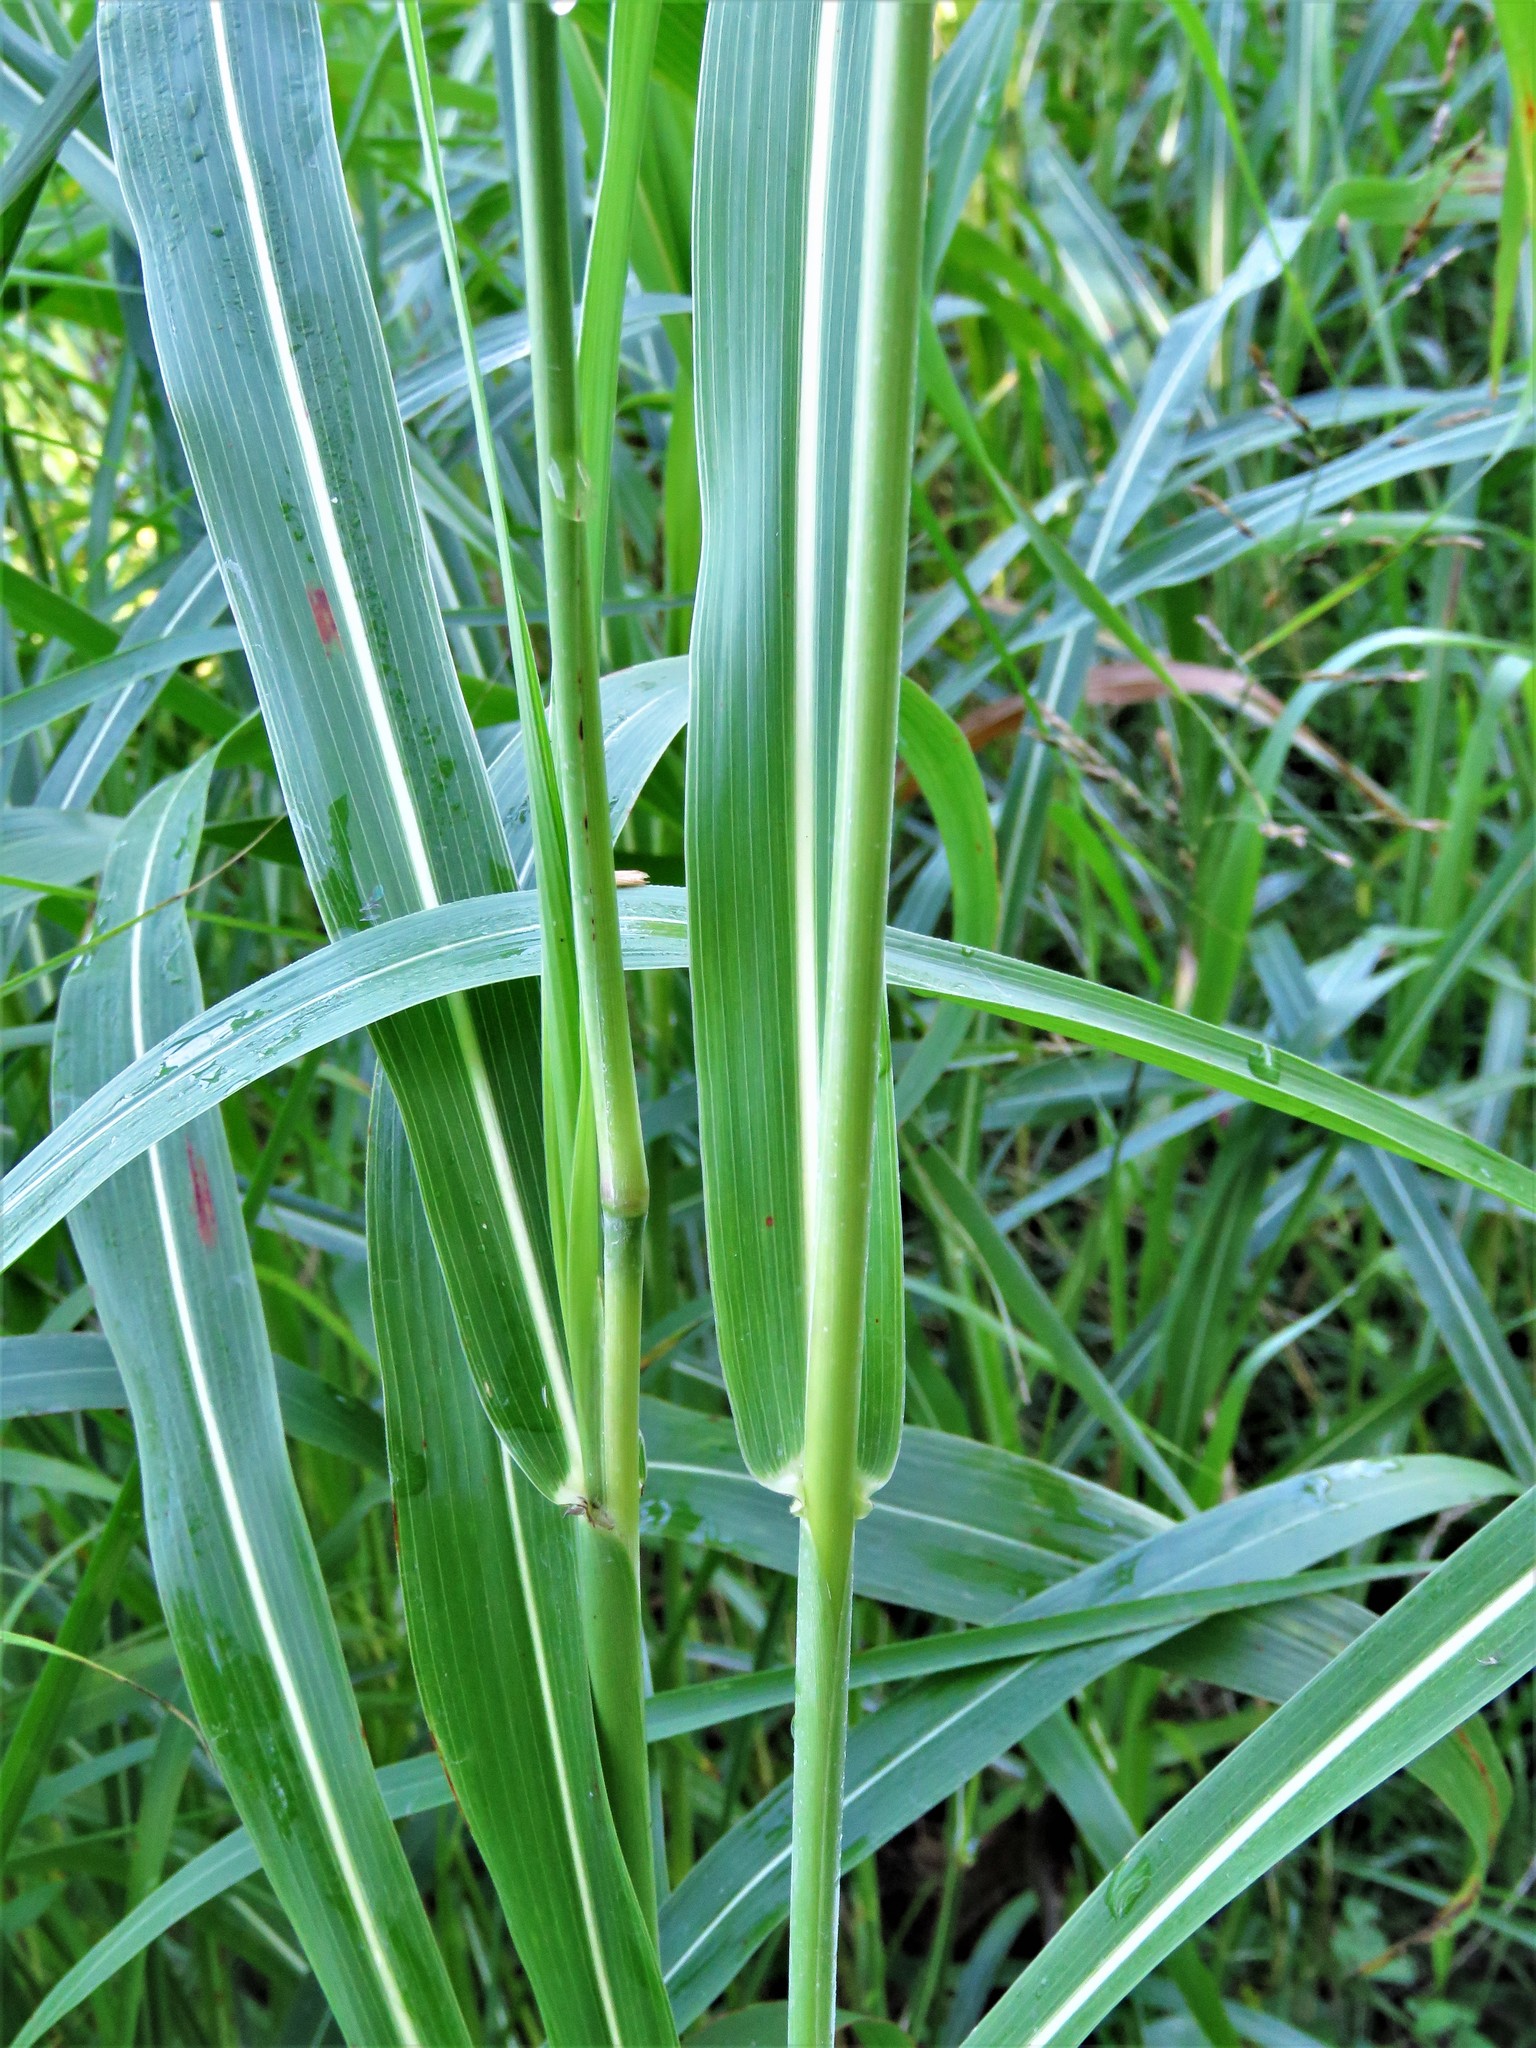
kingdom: Plantae
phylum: Tracheophyta
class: Liliopsida
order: Poales
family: Poaceae
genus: Sorghum
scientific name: Sorghum halepense
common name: Johnson-grass
